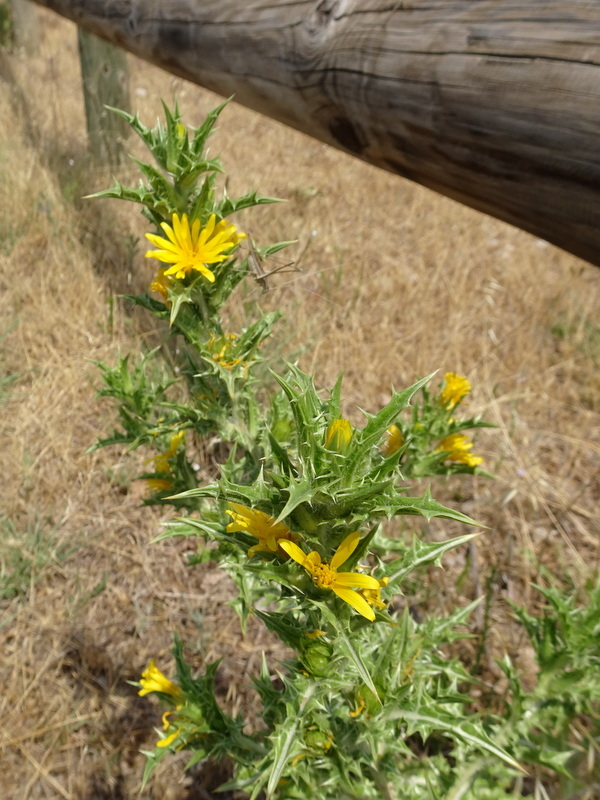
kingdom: Plantae
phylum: Tracheophyta
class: Magnoliopsida
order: Asterales
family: Asteraceae
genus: Scolymus
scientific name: Scolymus hispanicus
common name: Golden thistle
